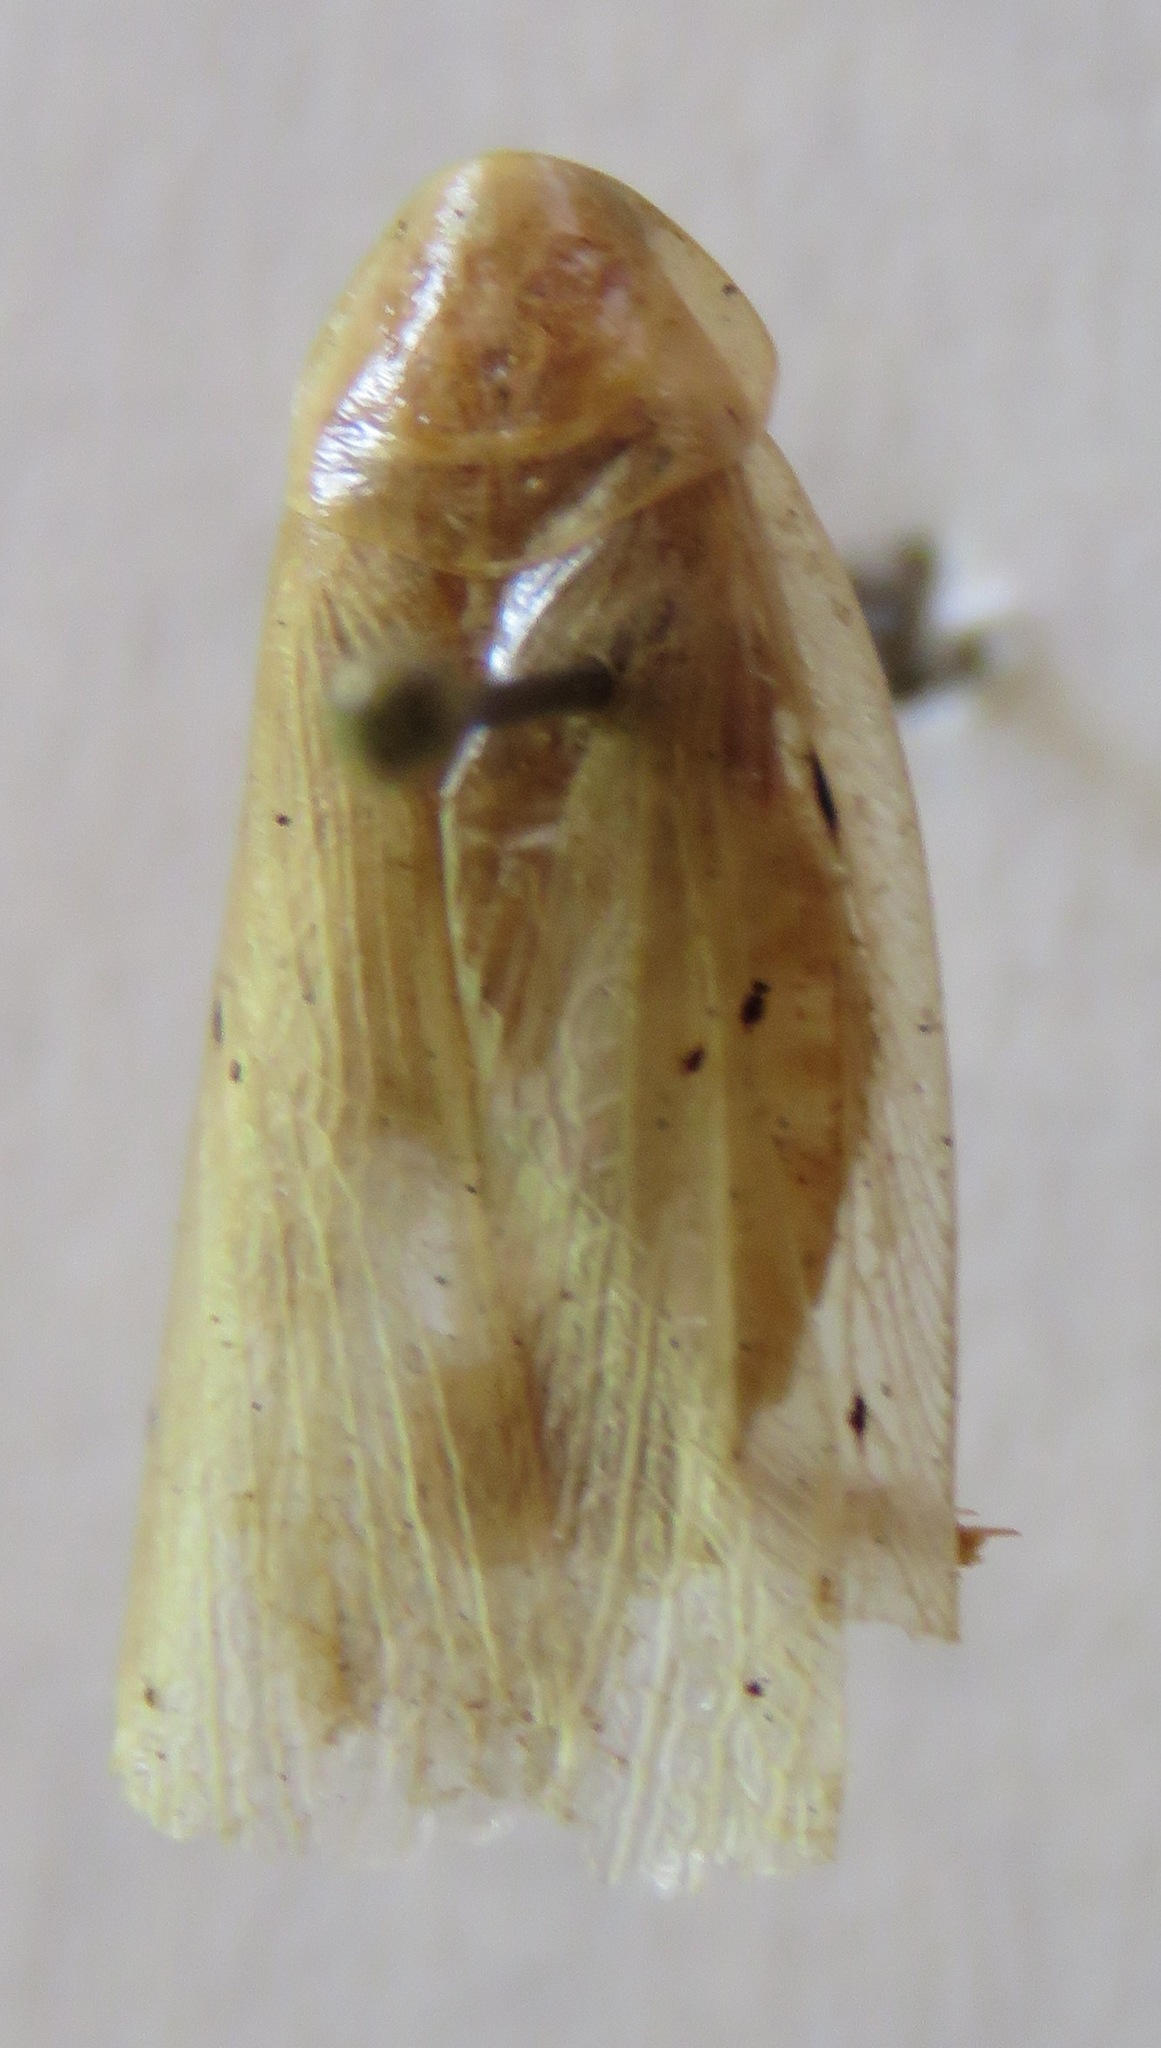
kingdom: Animalia
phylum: Arthropoda
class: Insecta
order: Blattodea
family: Blaberidae
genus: Panchlora
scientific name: Panchlora fraterna
